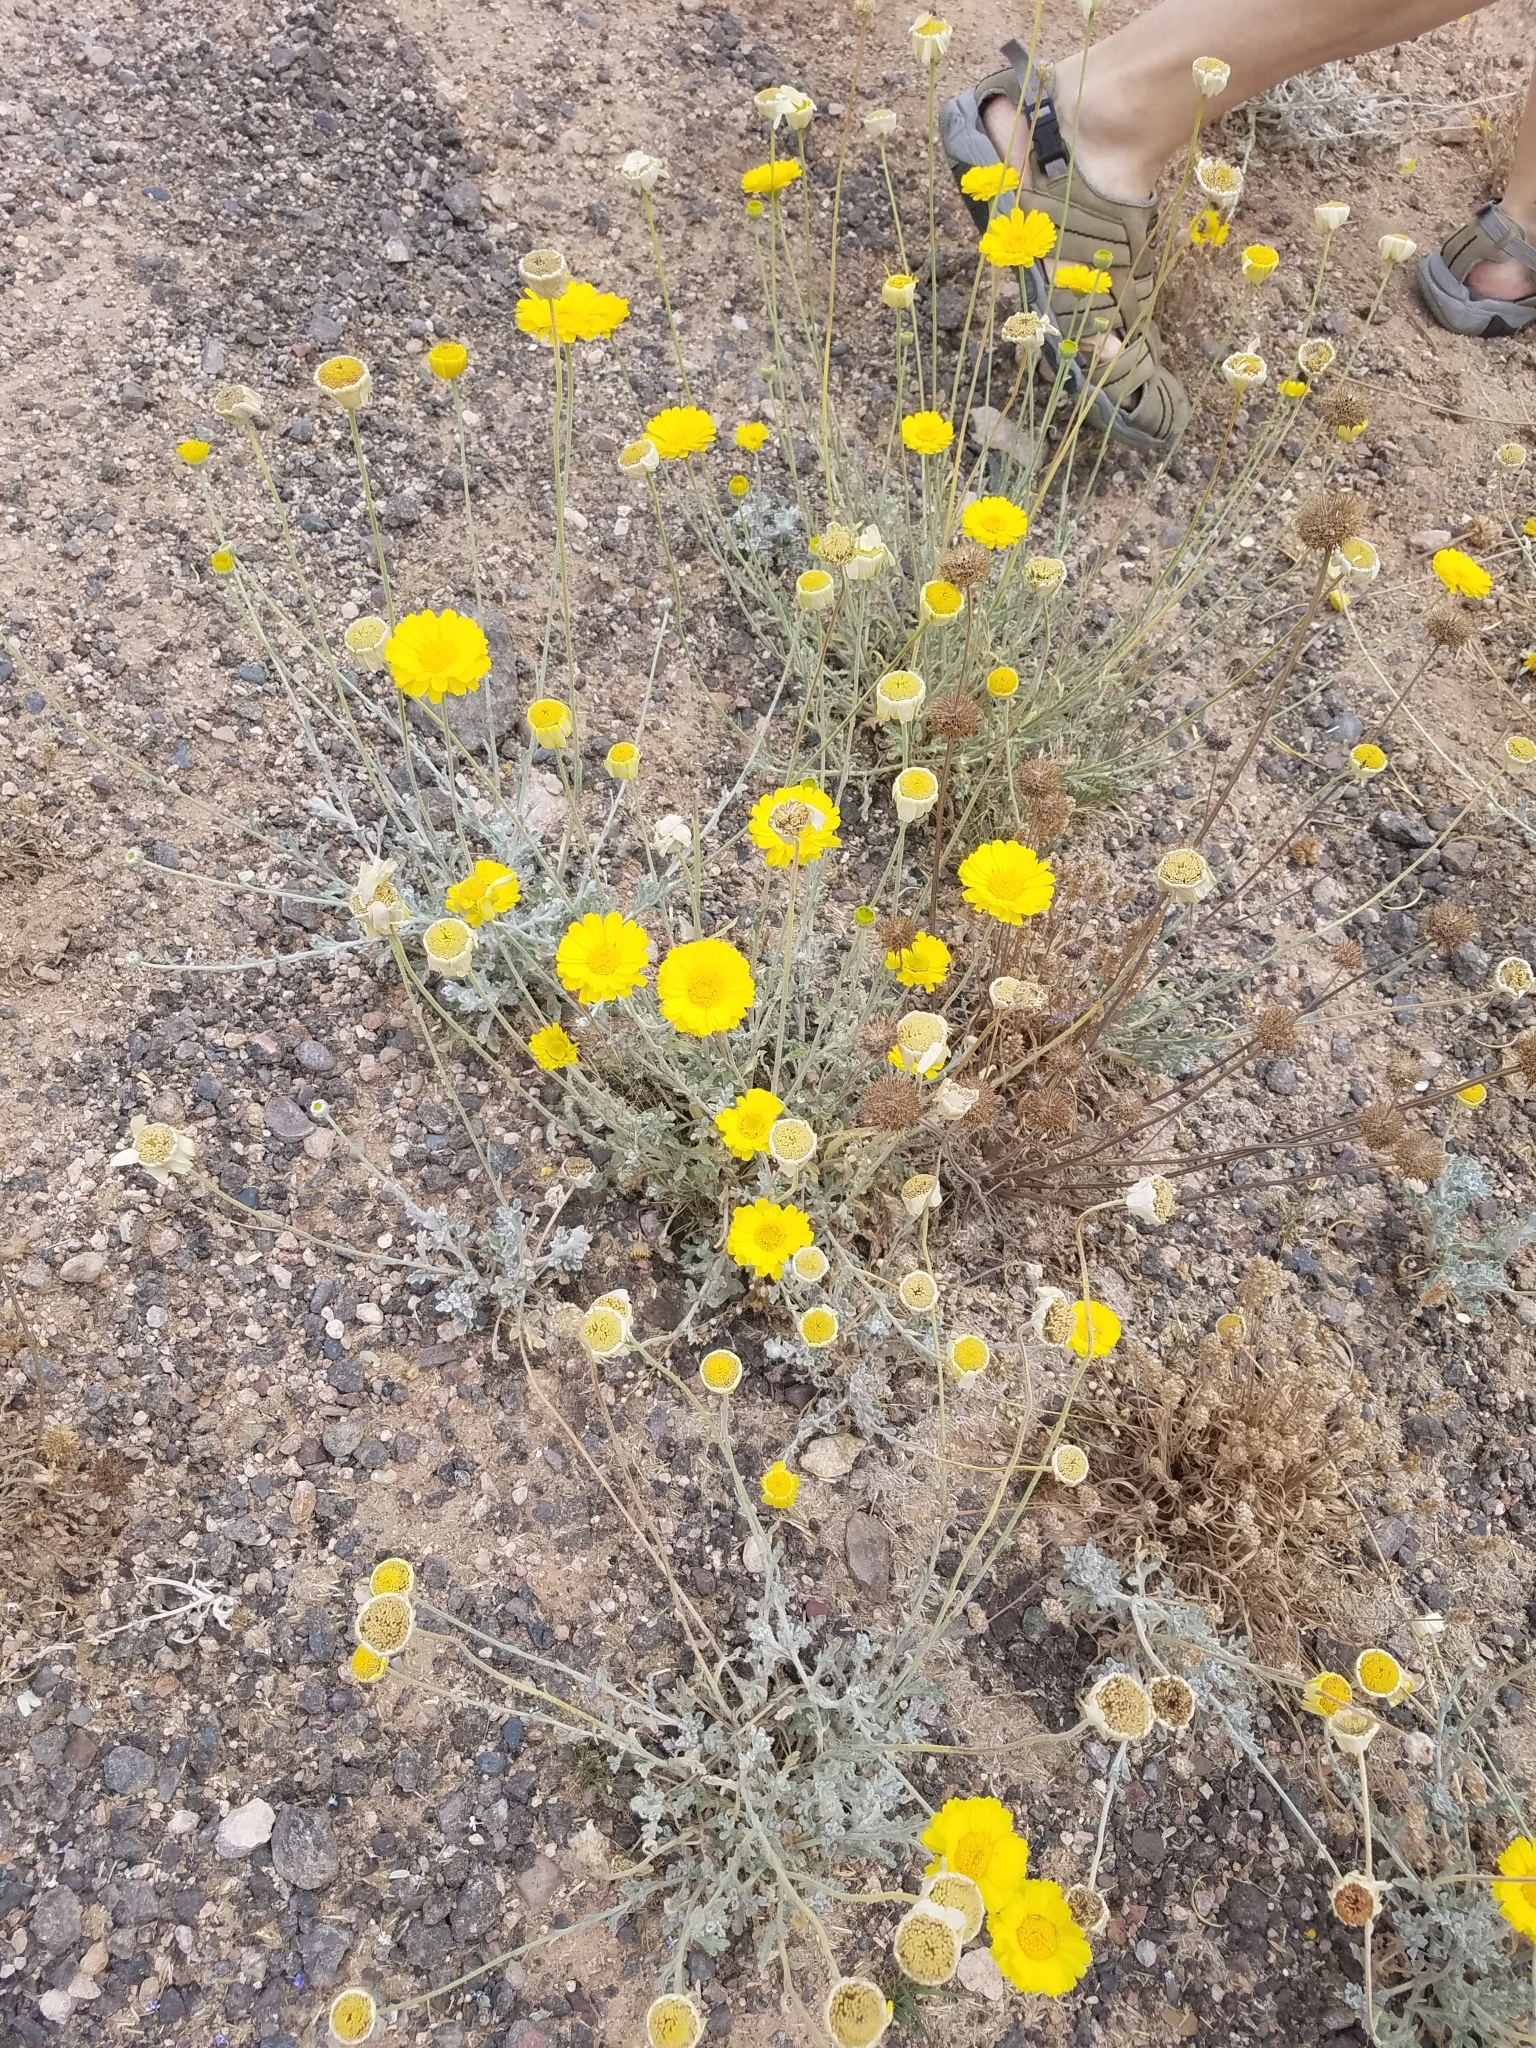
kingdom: Plantae
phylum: Tracheophyta
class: Magnoliopsida
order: Asterales
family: Asteraceae
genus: Baileya
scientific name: Baileya multiradiata
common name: Desert-marigold
